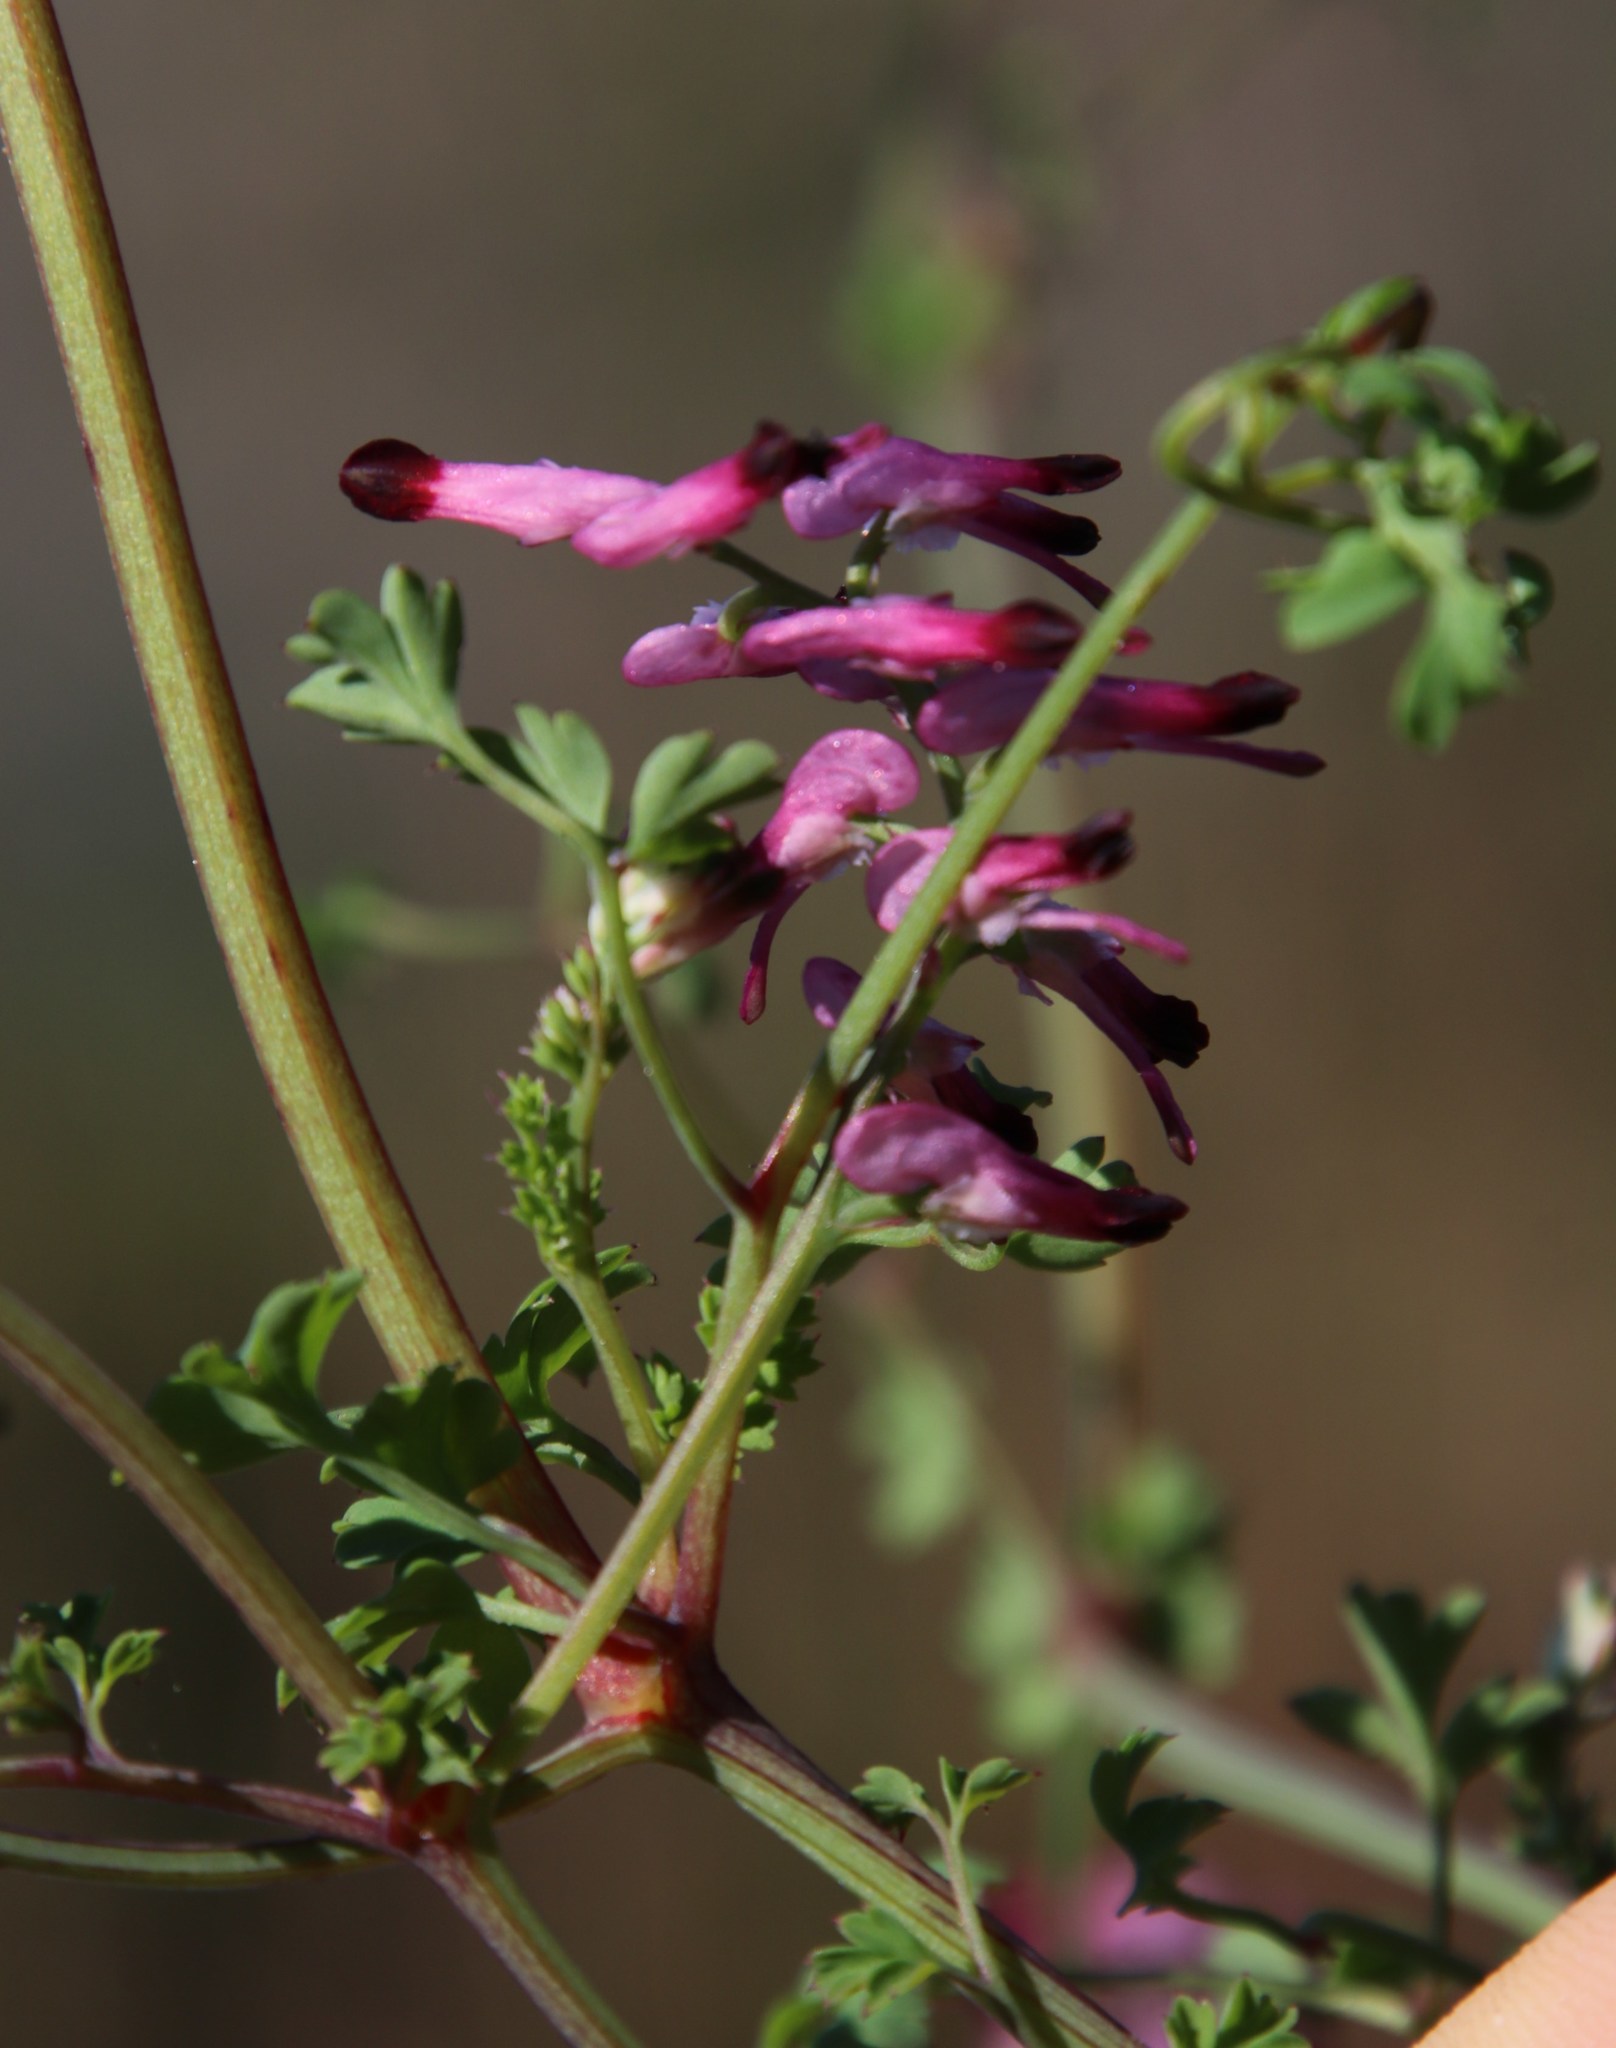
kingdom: Plantae
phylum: Tracheophyta
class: Magnoliopsida
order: Ranunculales
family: Papaveraceae
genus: Fumaria
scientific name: Fumaria muralis
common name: Common ramping-fumitory
